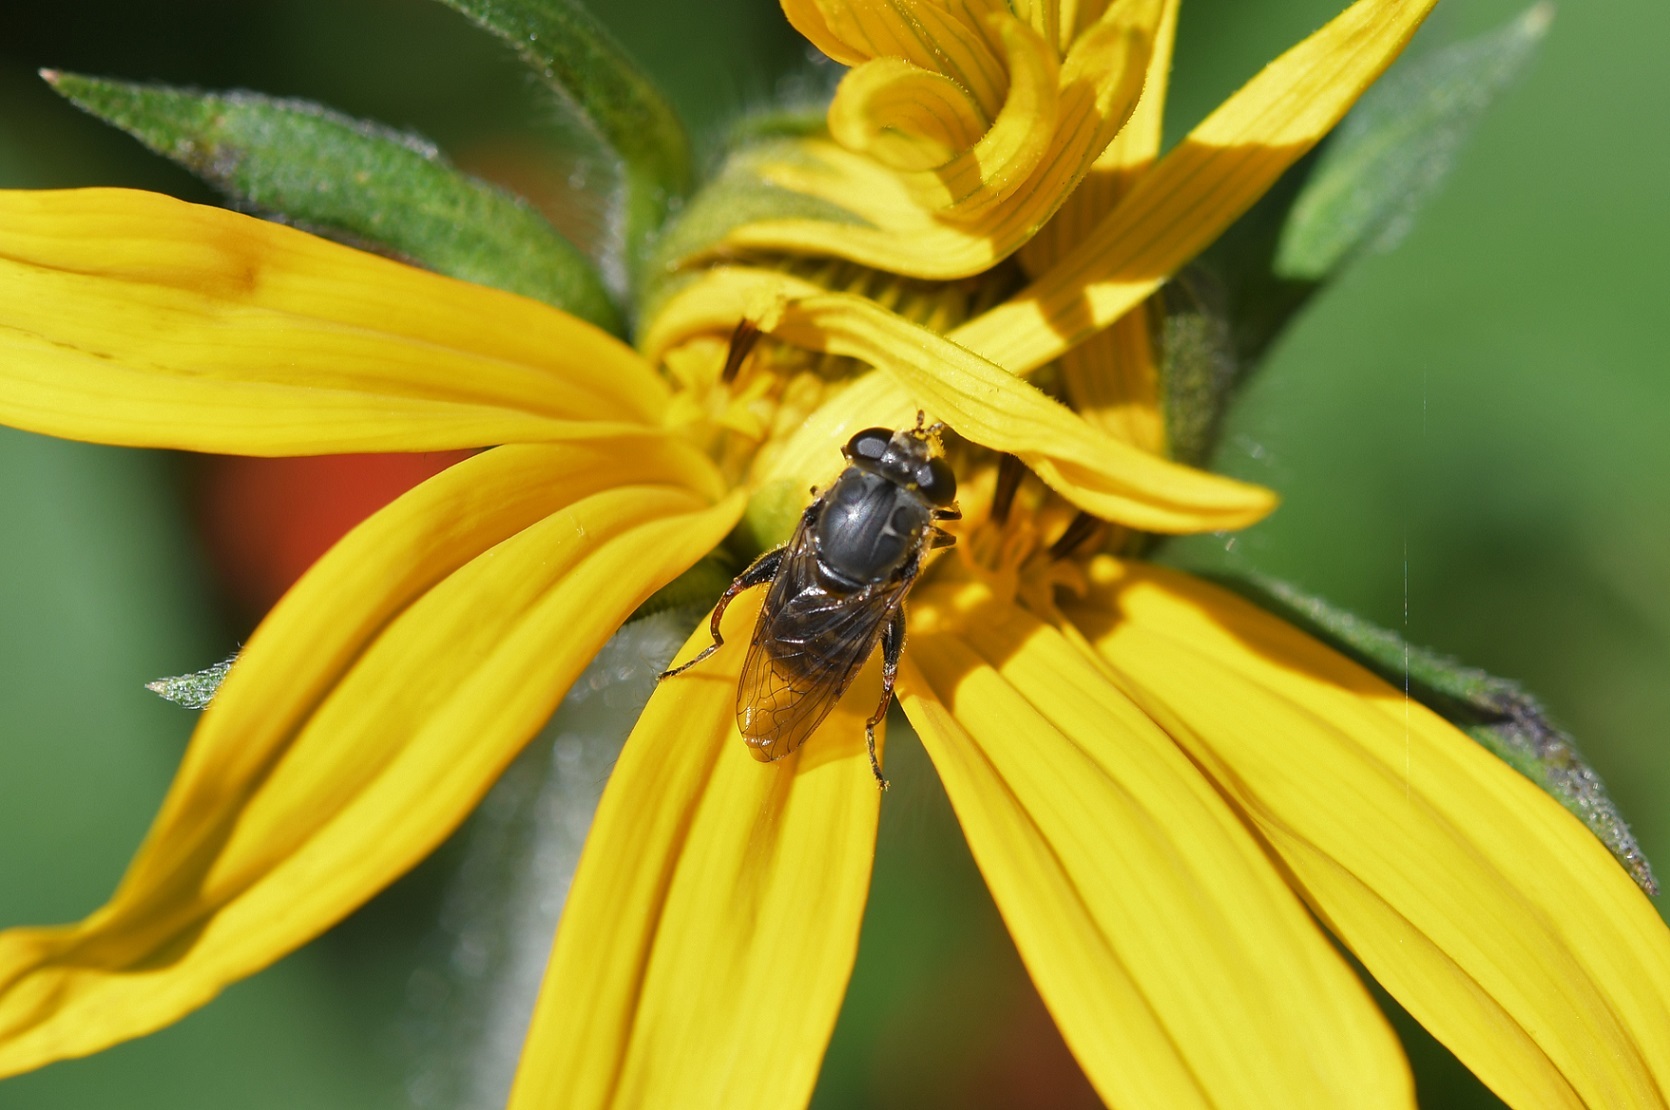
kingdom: Plantae
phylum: Tracheophyta
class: Magnoliopsida
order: Solanales
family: Convolvulaceae
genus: Ipomoea
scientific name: Ipomoea purpurea
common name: Common morning-glory
